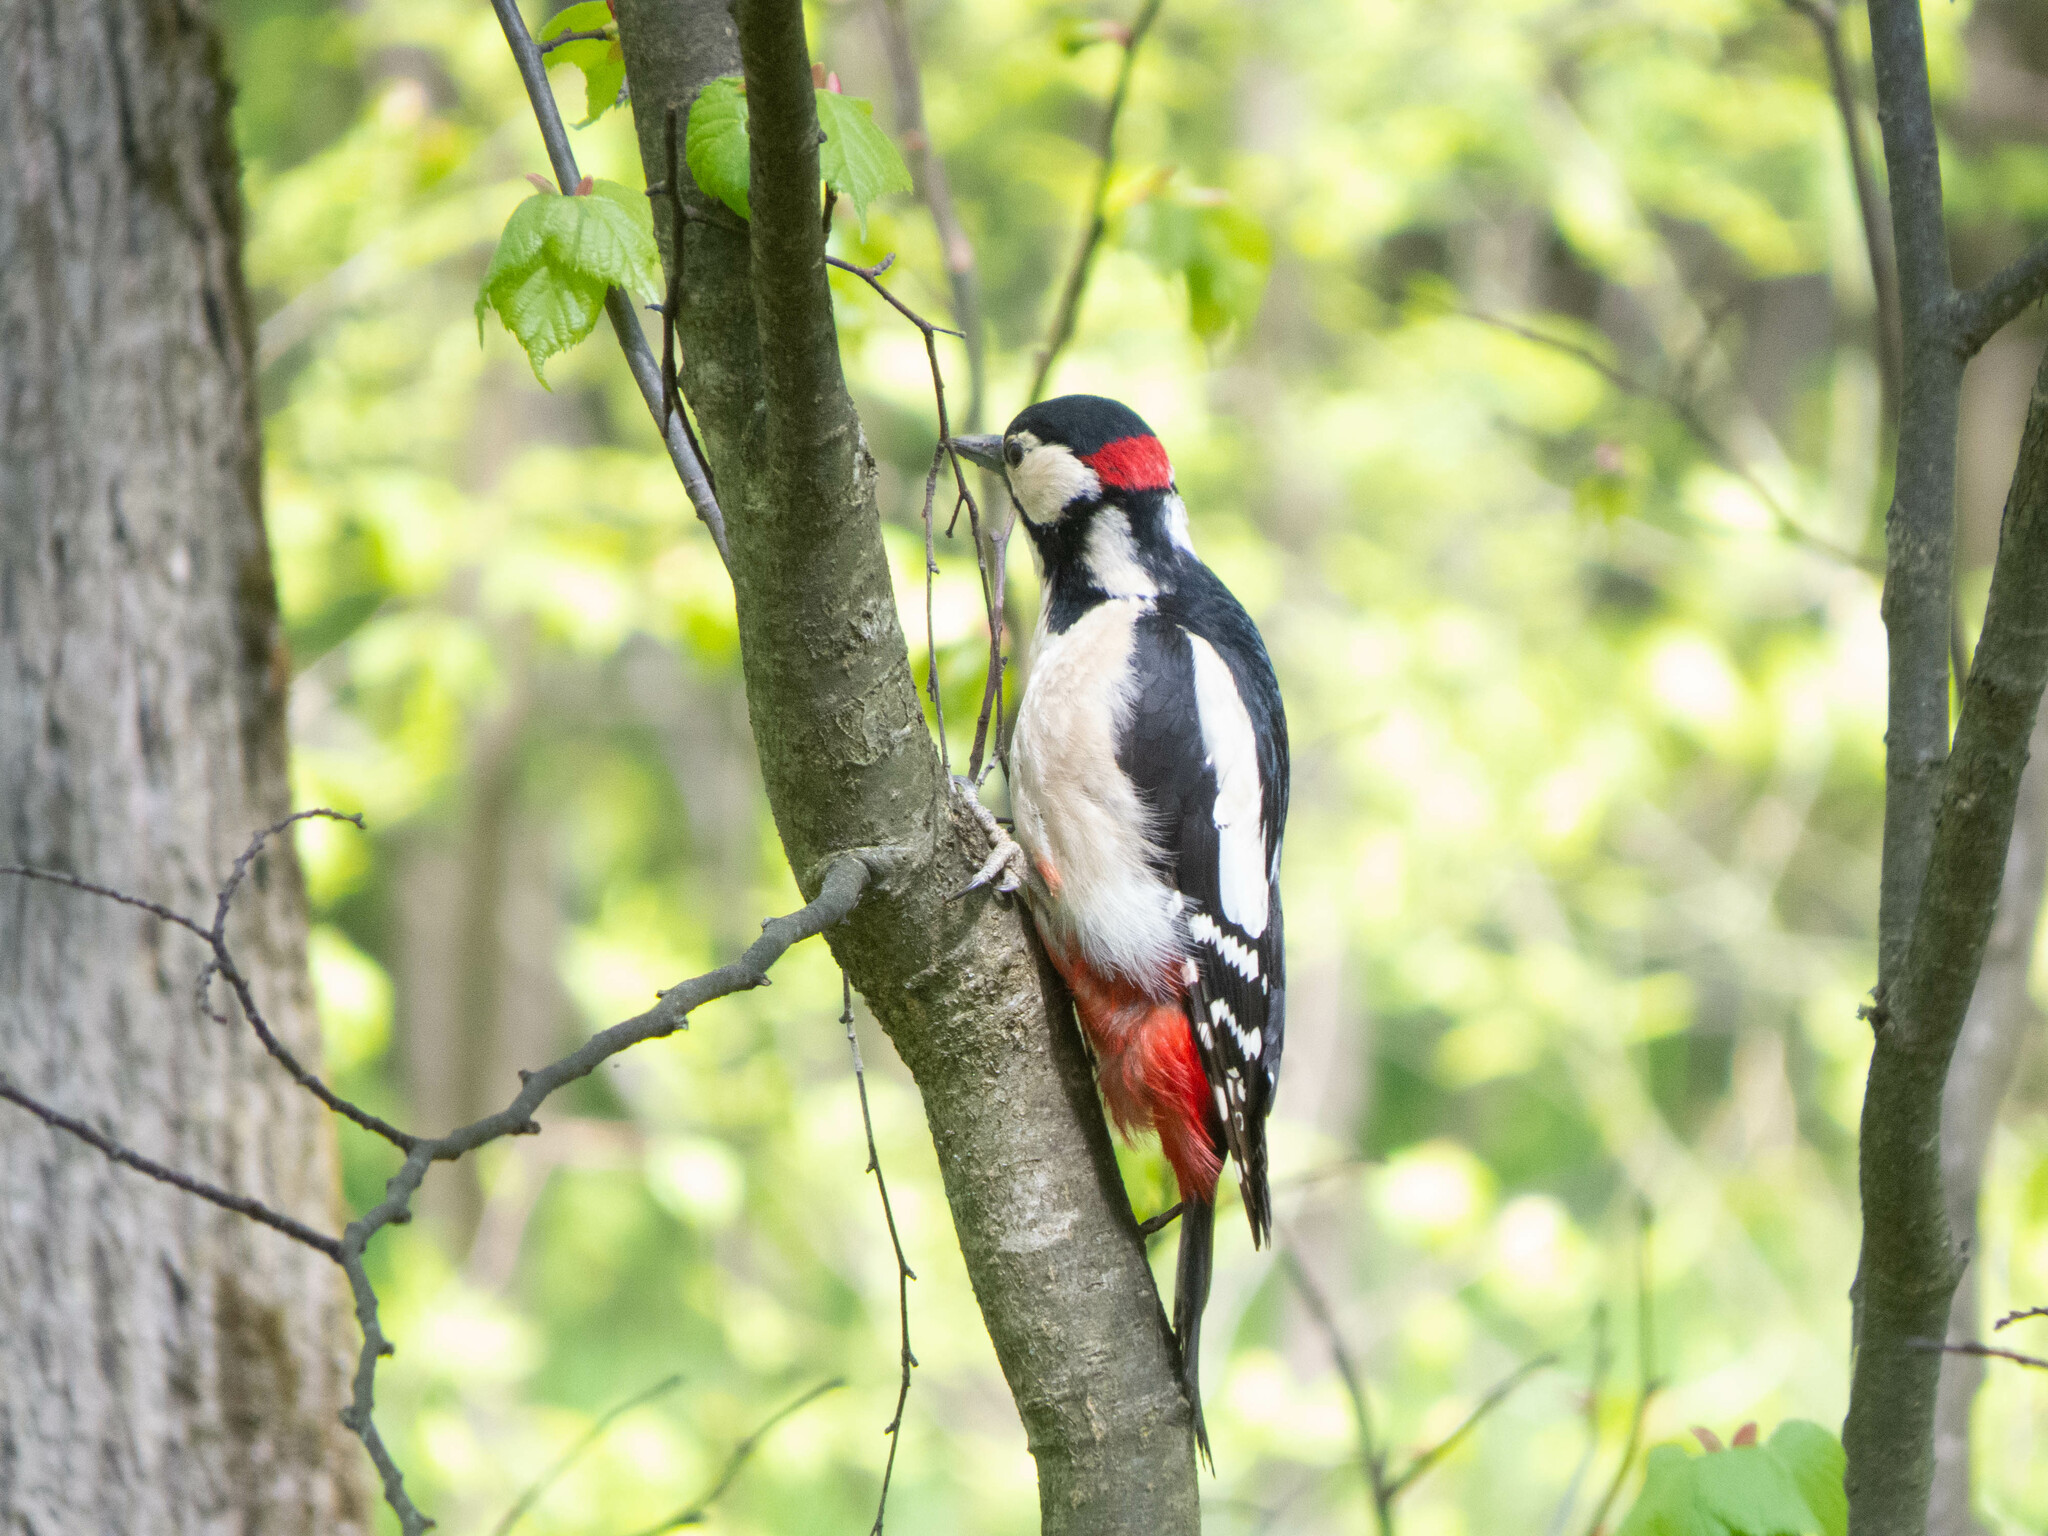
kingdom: Animalia
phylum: Chordata
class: Aves
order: Piciformes
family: Picidae
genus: Dendrocopos
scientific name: Dendrocopos major
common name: Great spotted woodpecker
